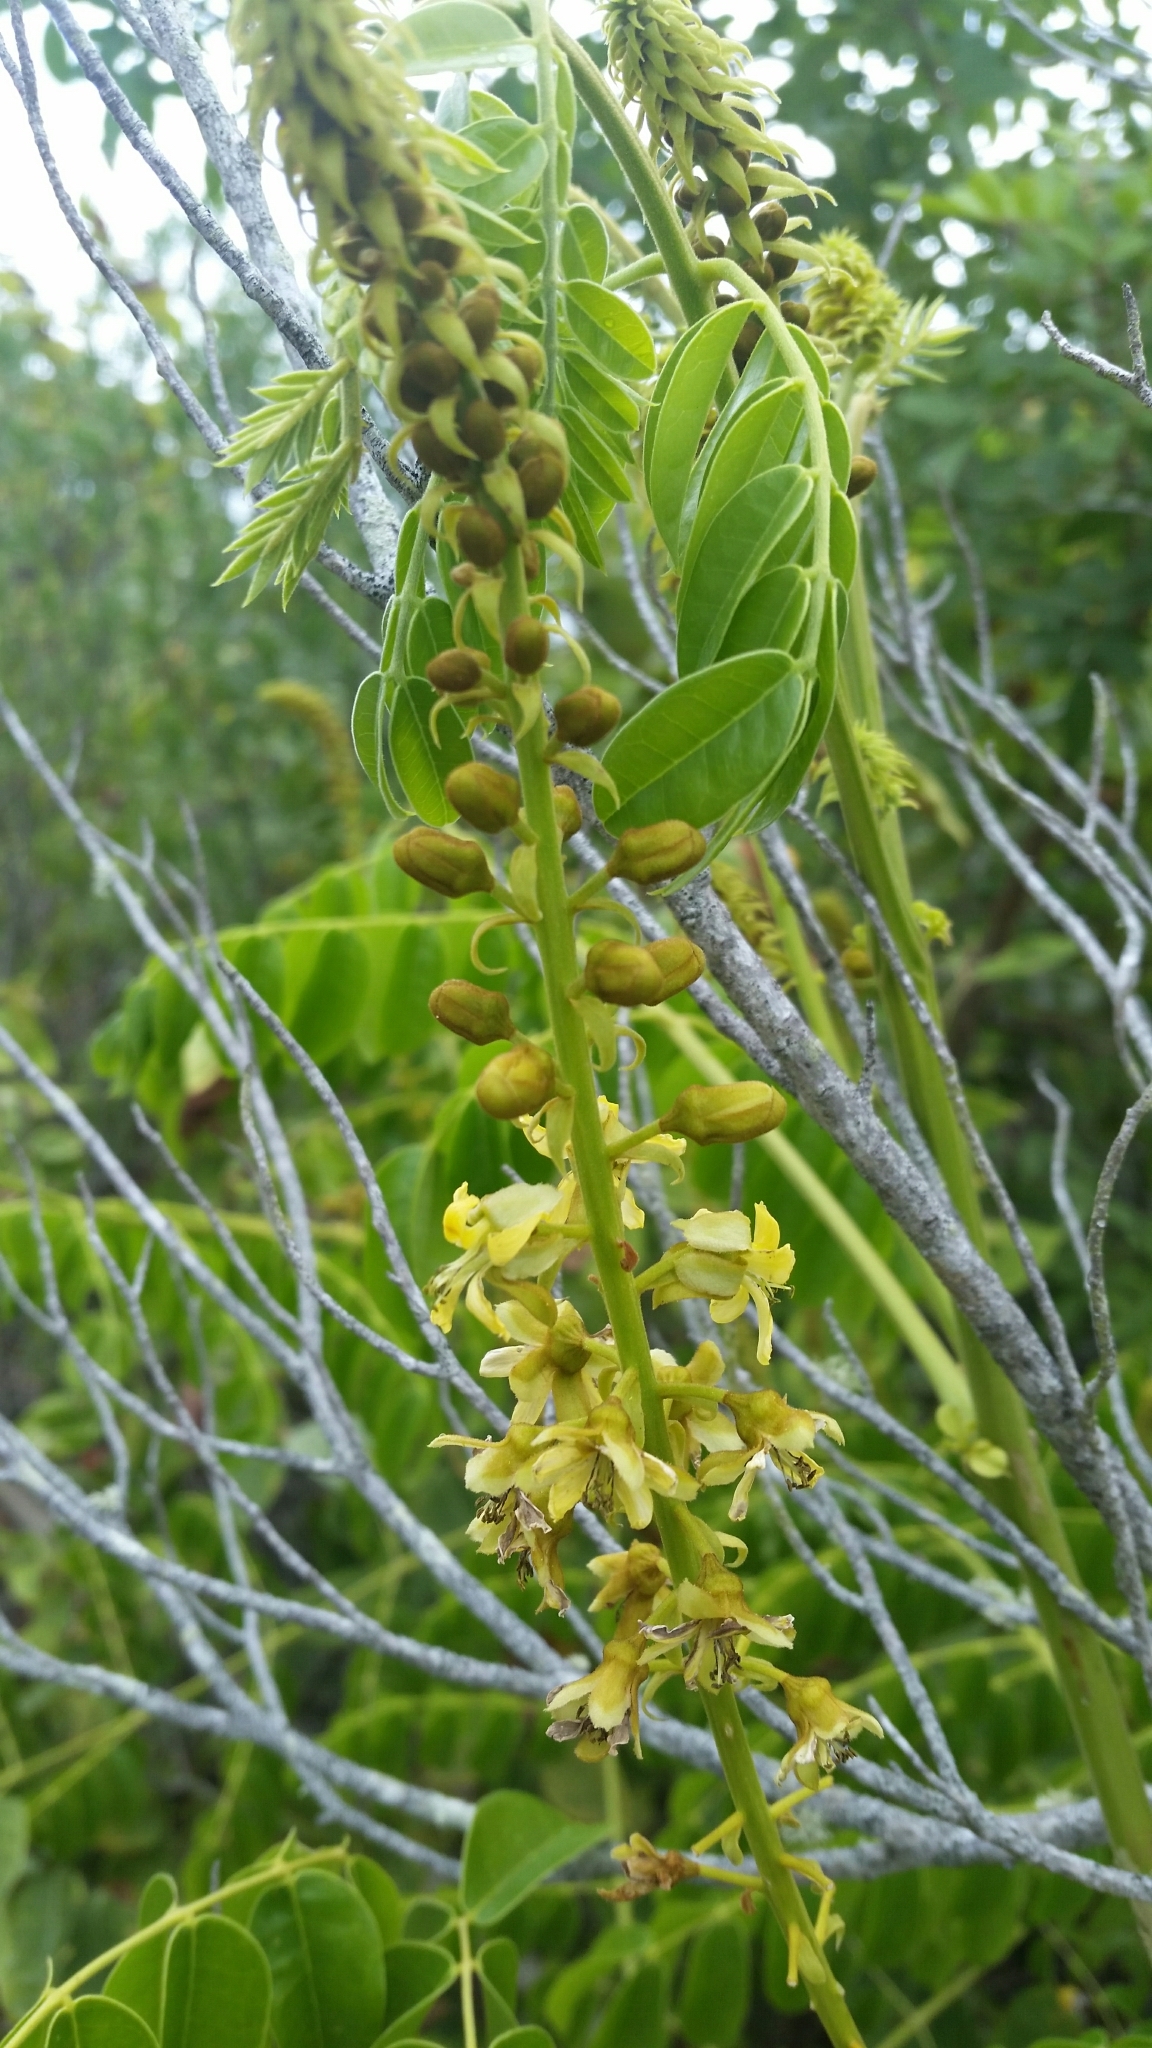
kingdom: Plantae
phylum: Tracheophyta
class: Magnoliopsida
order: Fabales
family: Fabaceae
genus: Guilandina
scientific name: Guilandina bonduc
